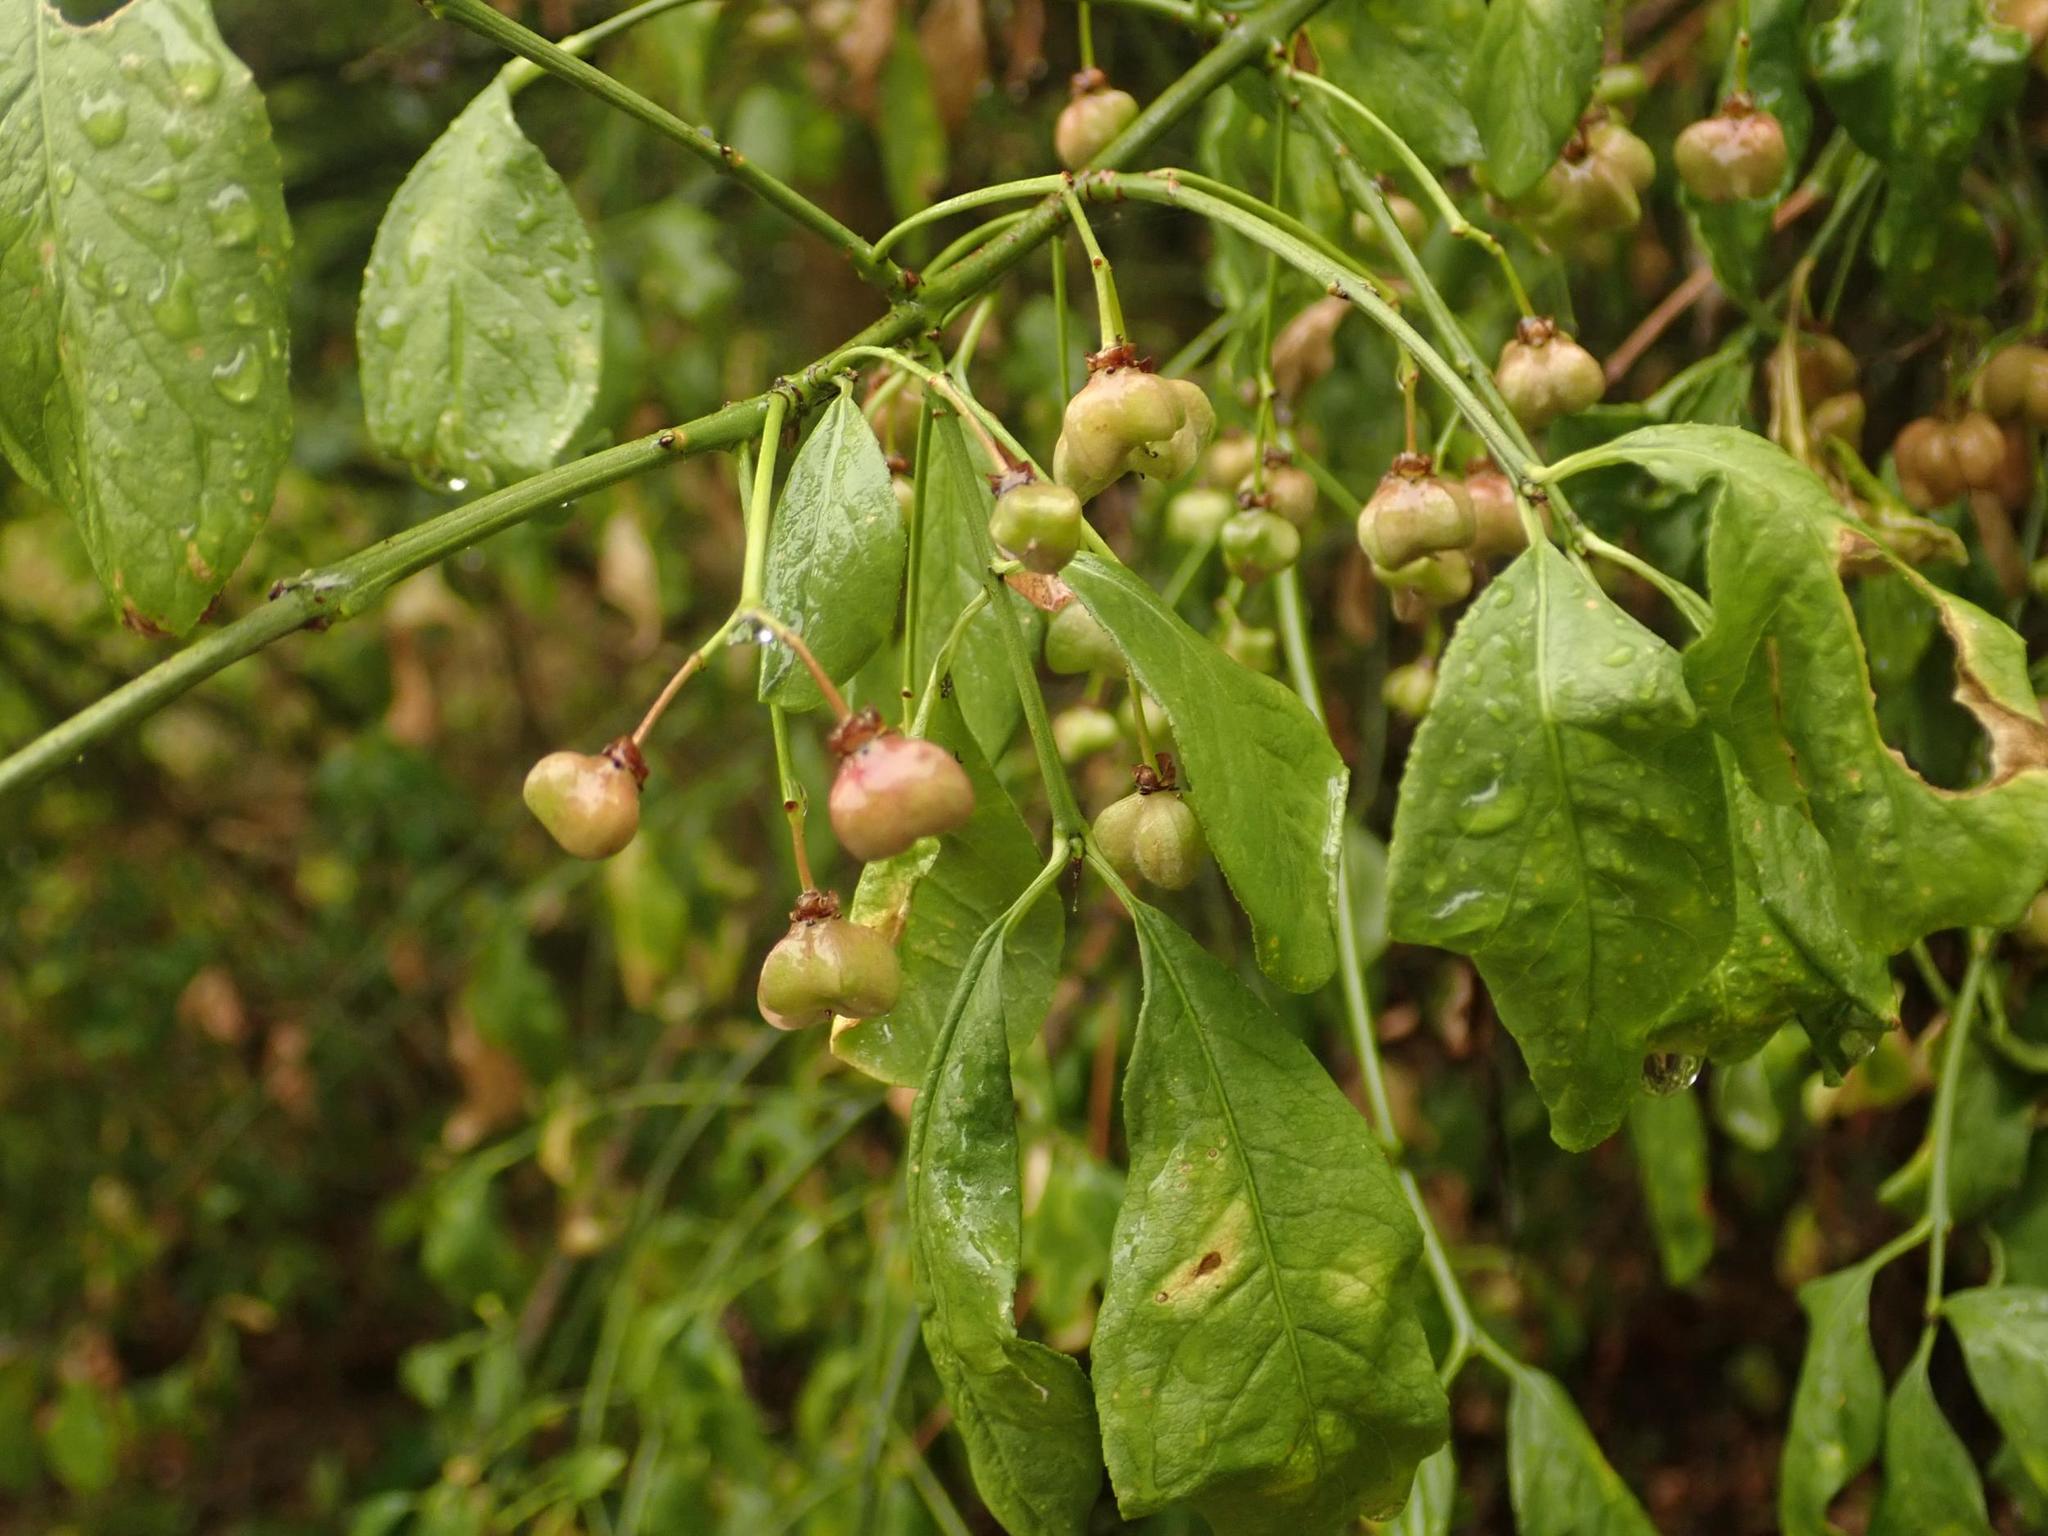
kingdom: Plantae
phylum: Tracheophyta
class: Magnoliopsida
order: Celastrales
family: Celastraceae
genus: Euonymus
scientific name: Euonymus europaeus
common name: Spindle
